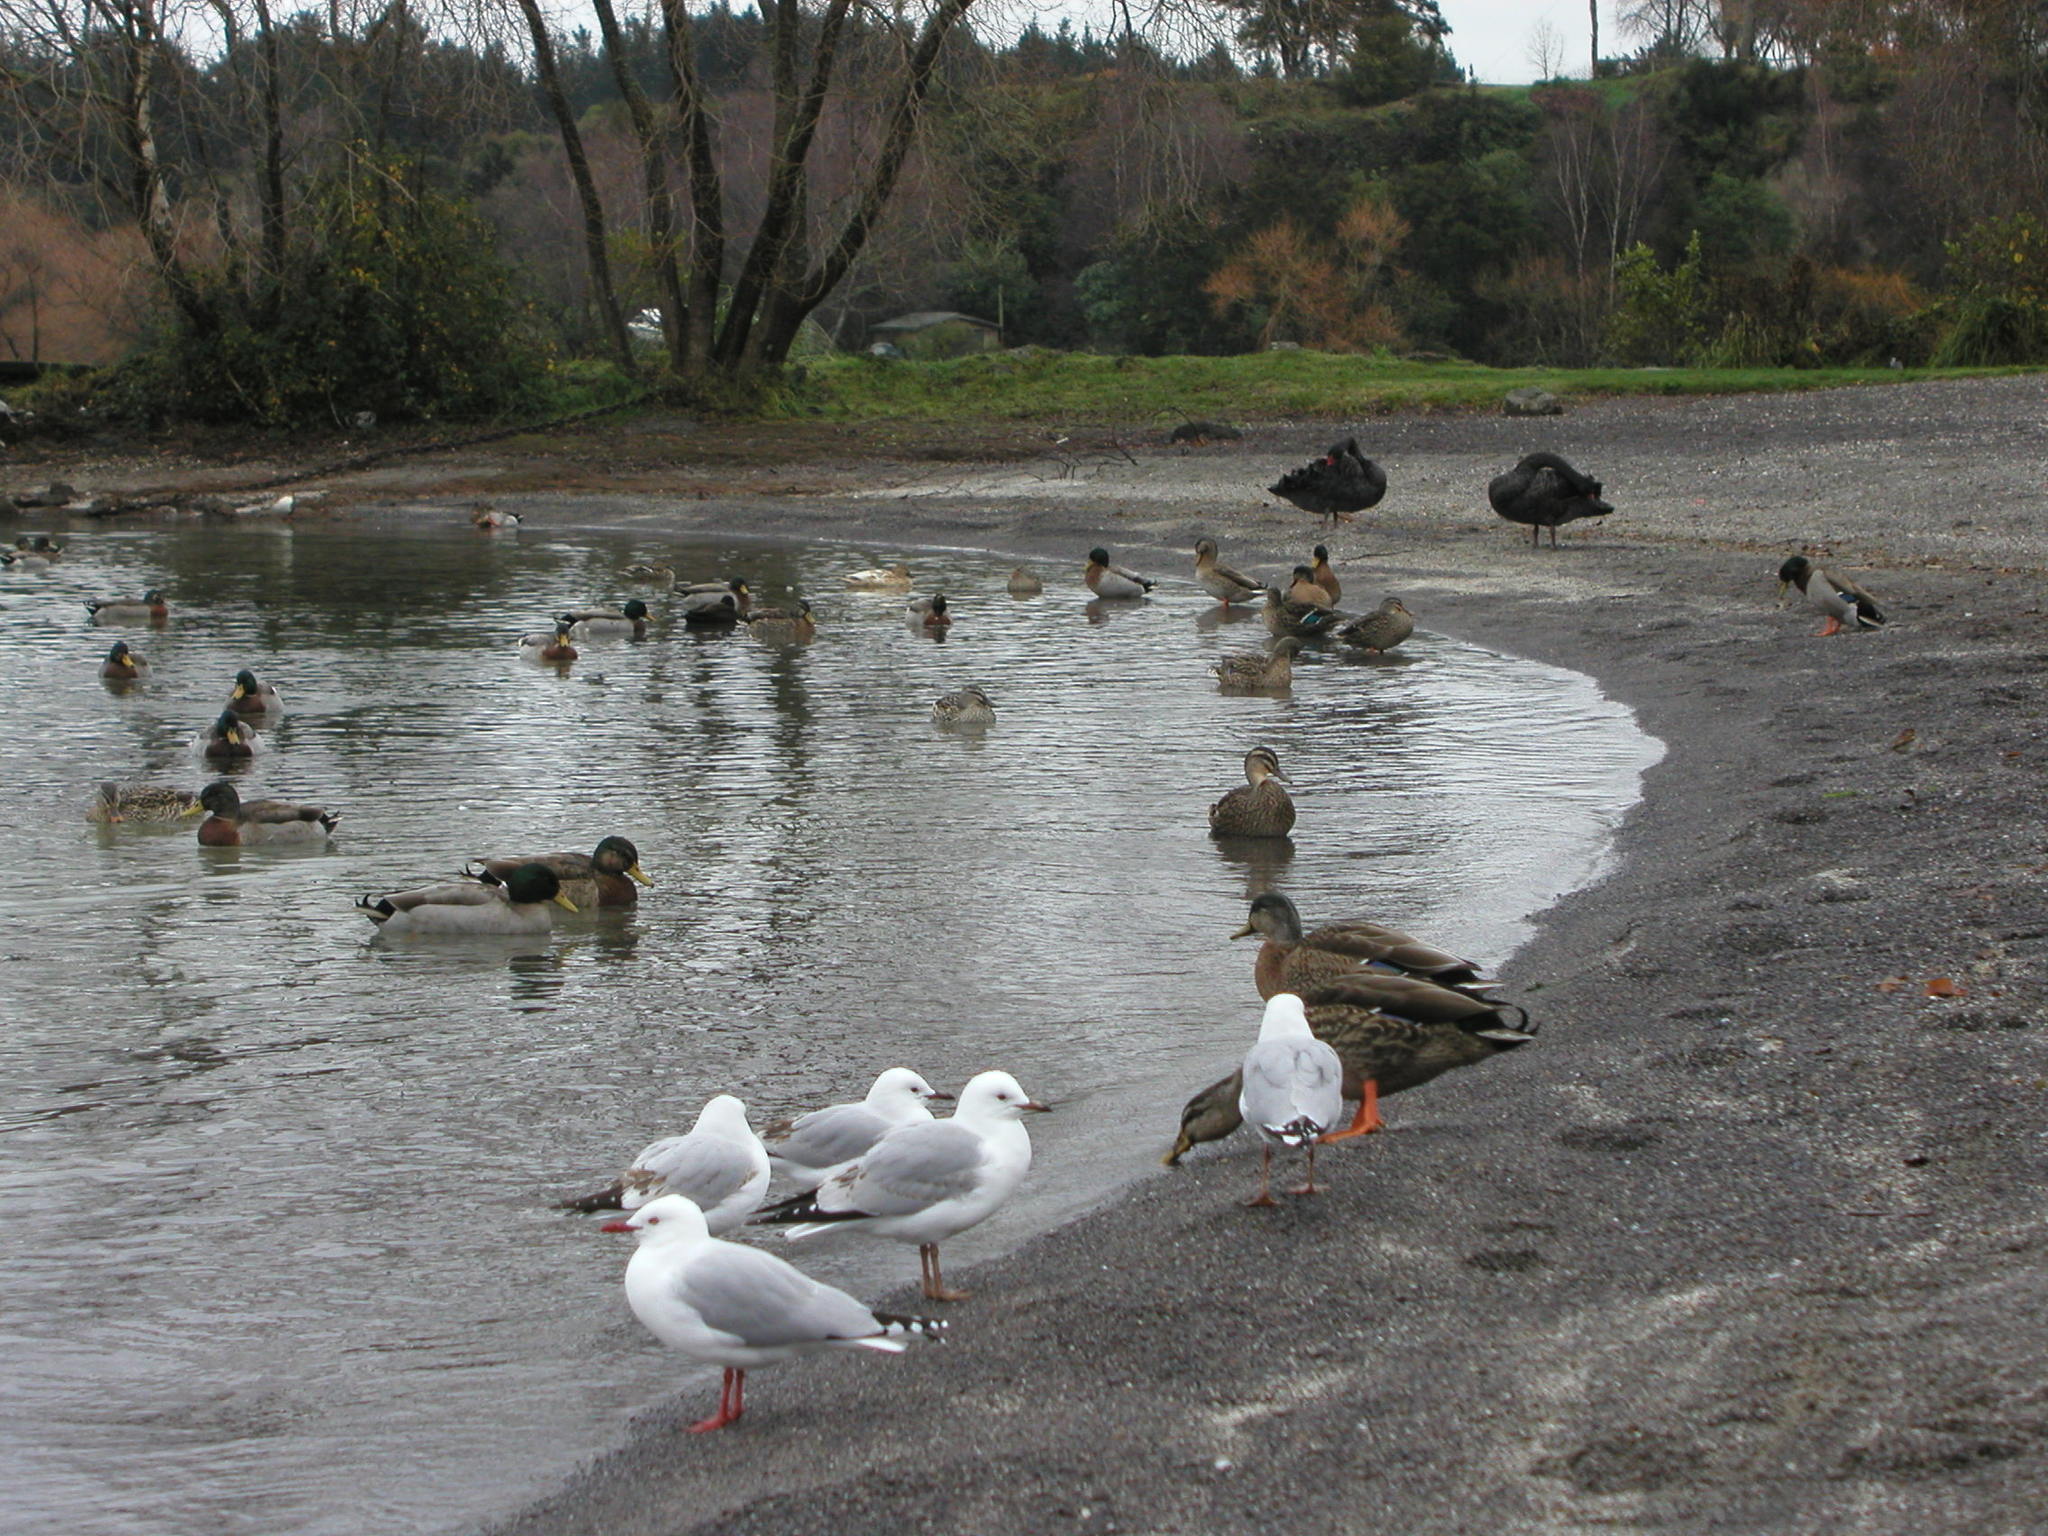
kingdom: Animalia
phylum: Chordata
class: Aves
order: Charadriiformes
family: Laridae
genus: Chroicocephalus
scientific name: Chroicocephalus novaehollandiae
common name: Silver gull
